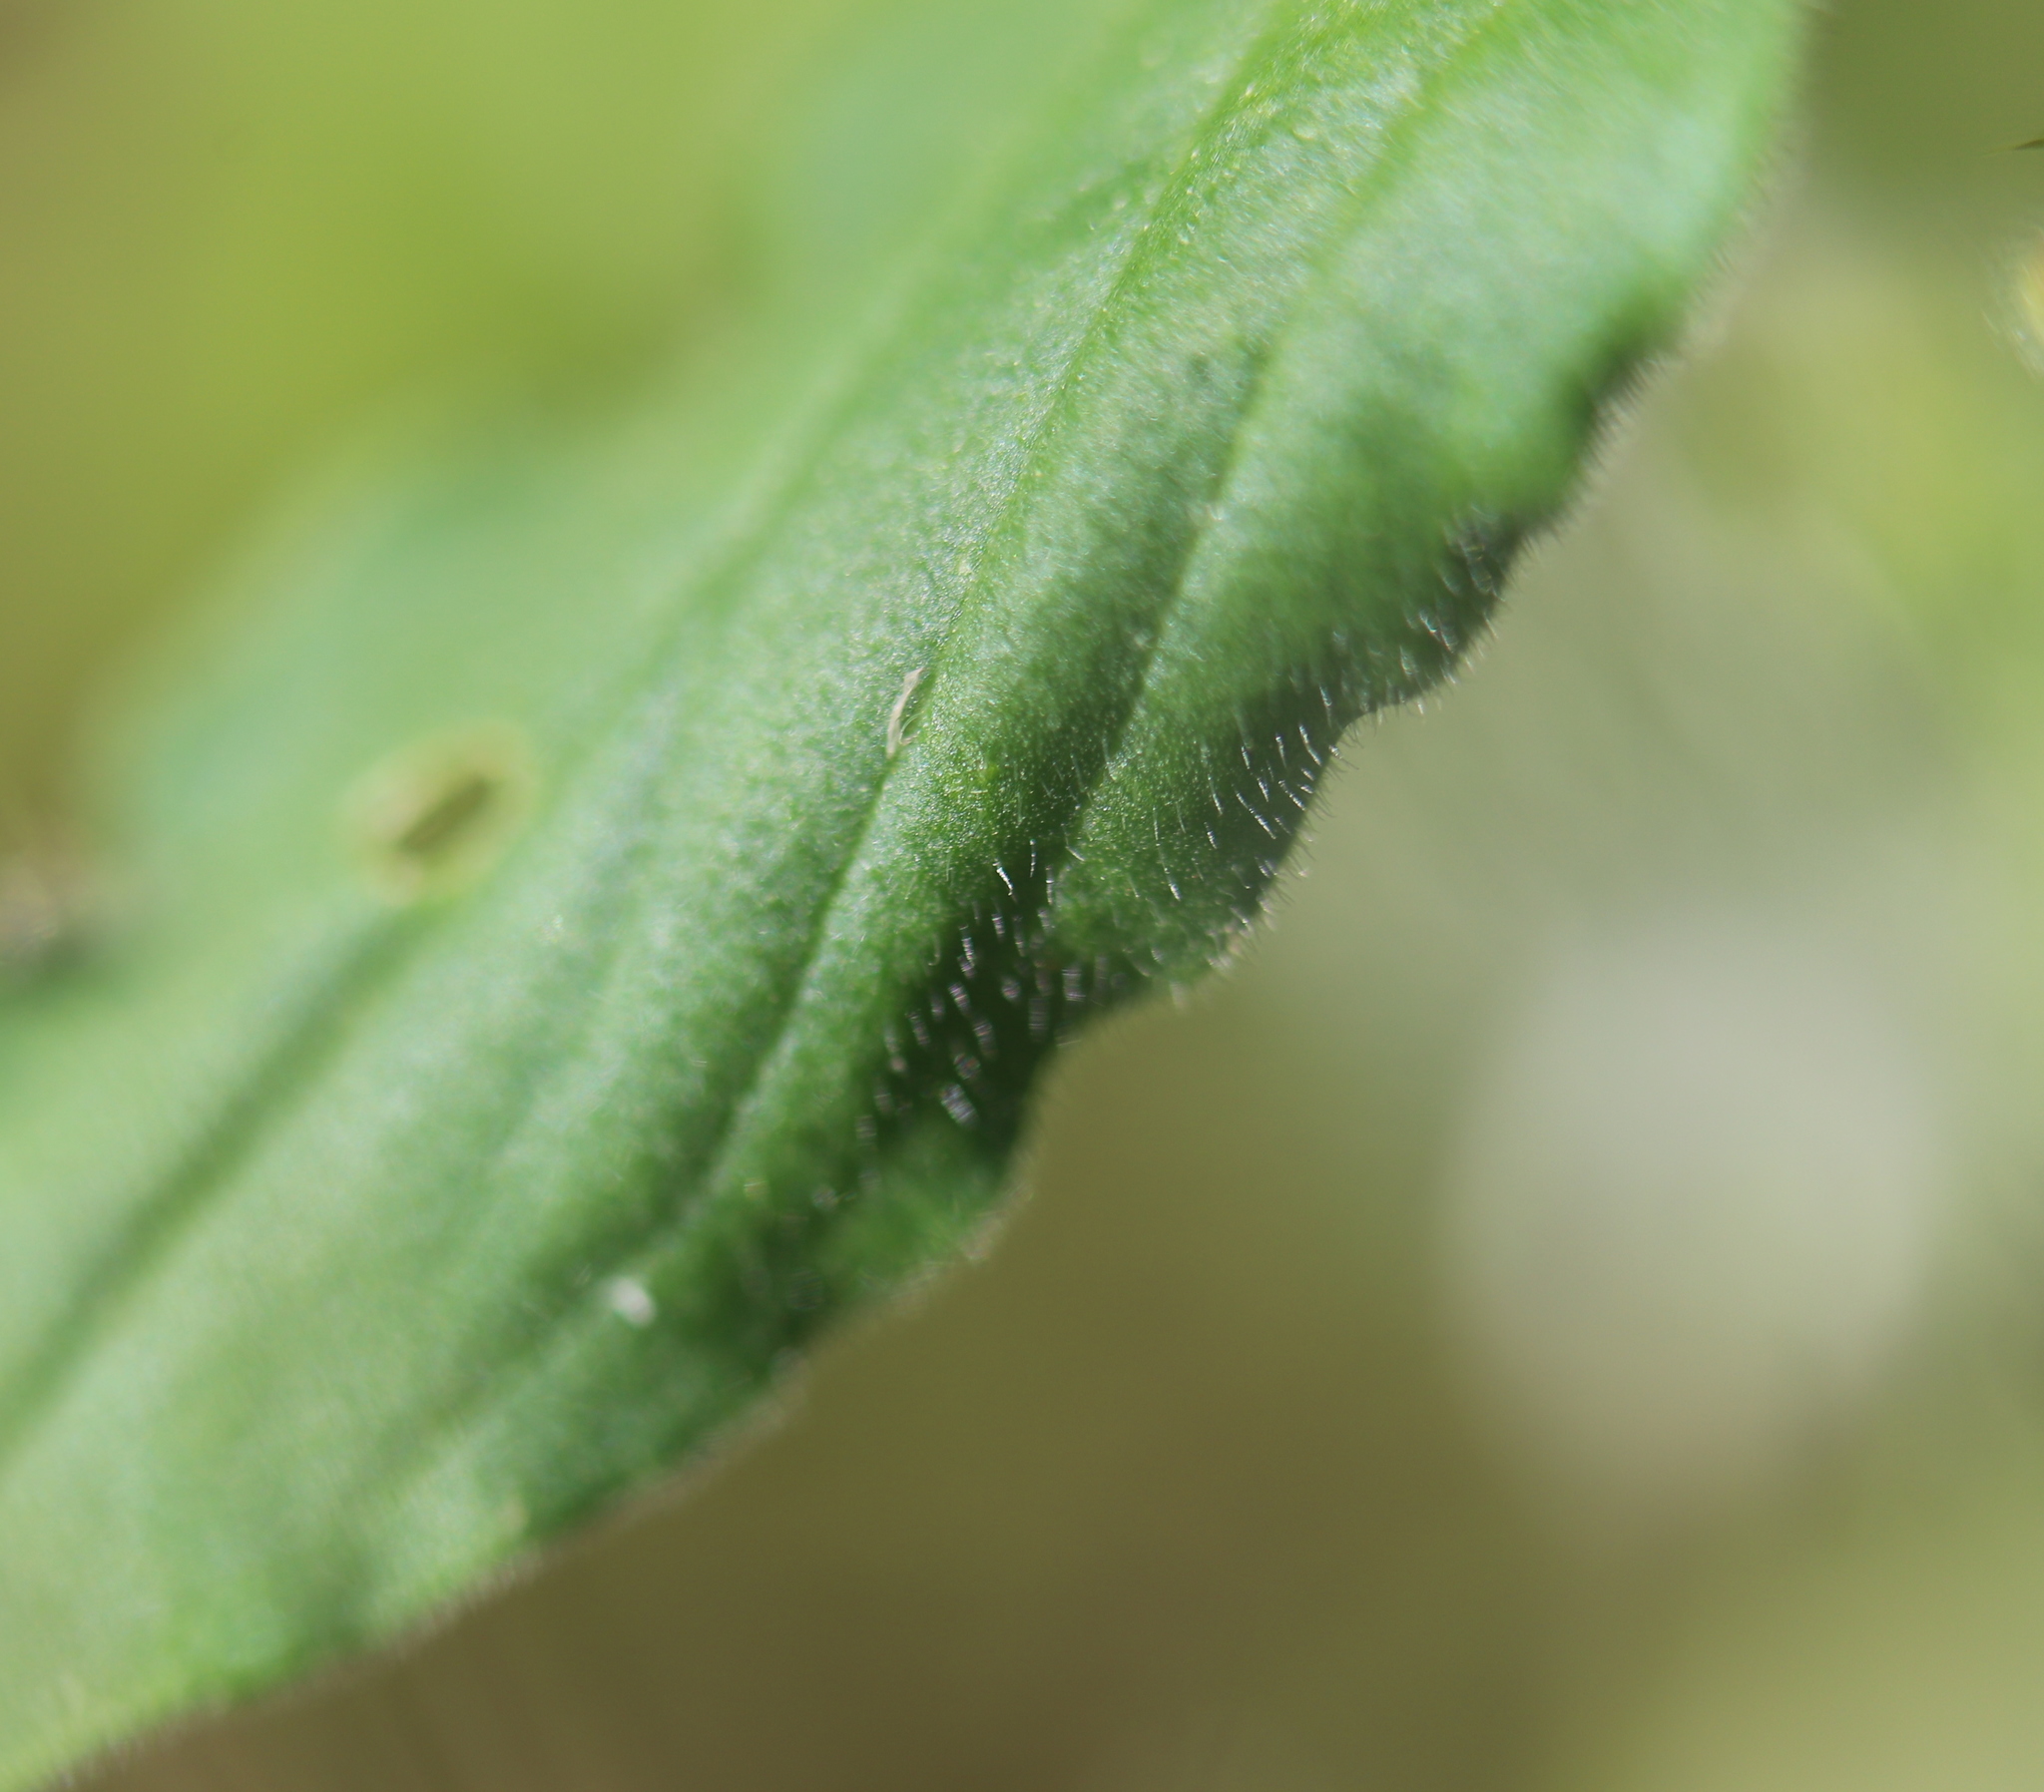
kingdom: Plantae
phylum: Tracheophyta
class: Magnoliopsida
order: Caryophyllales
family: Caryophyllaceae
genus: Silene
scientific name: Silene latifolia
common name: White campion
